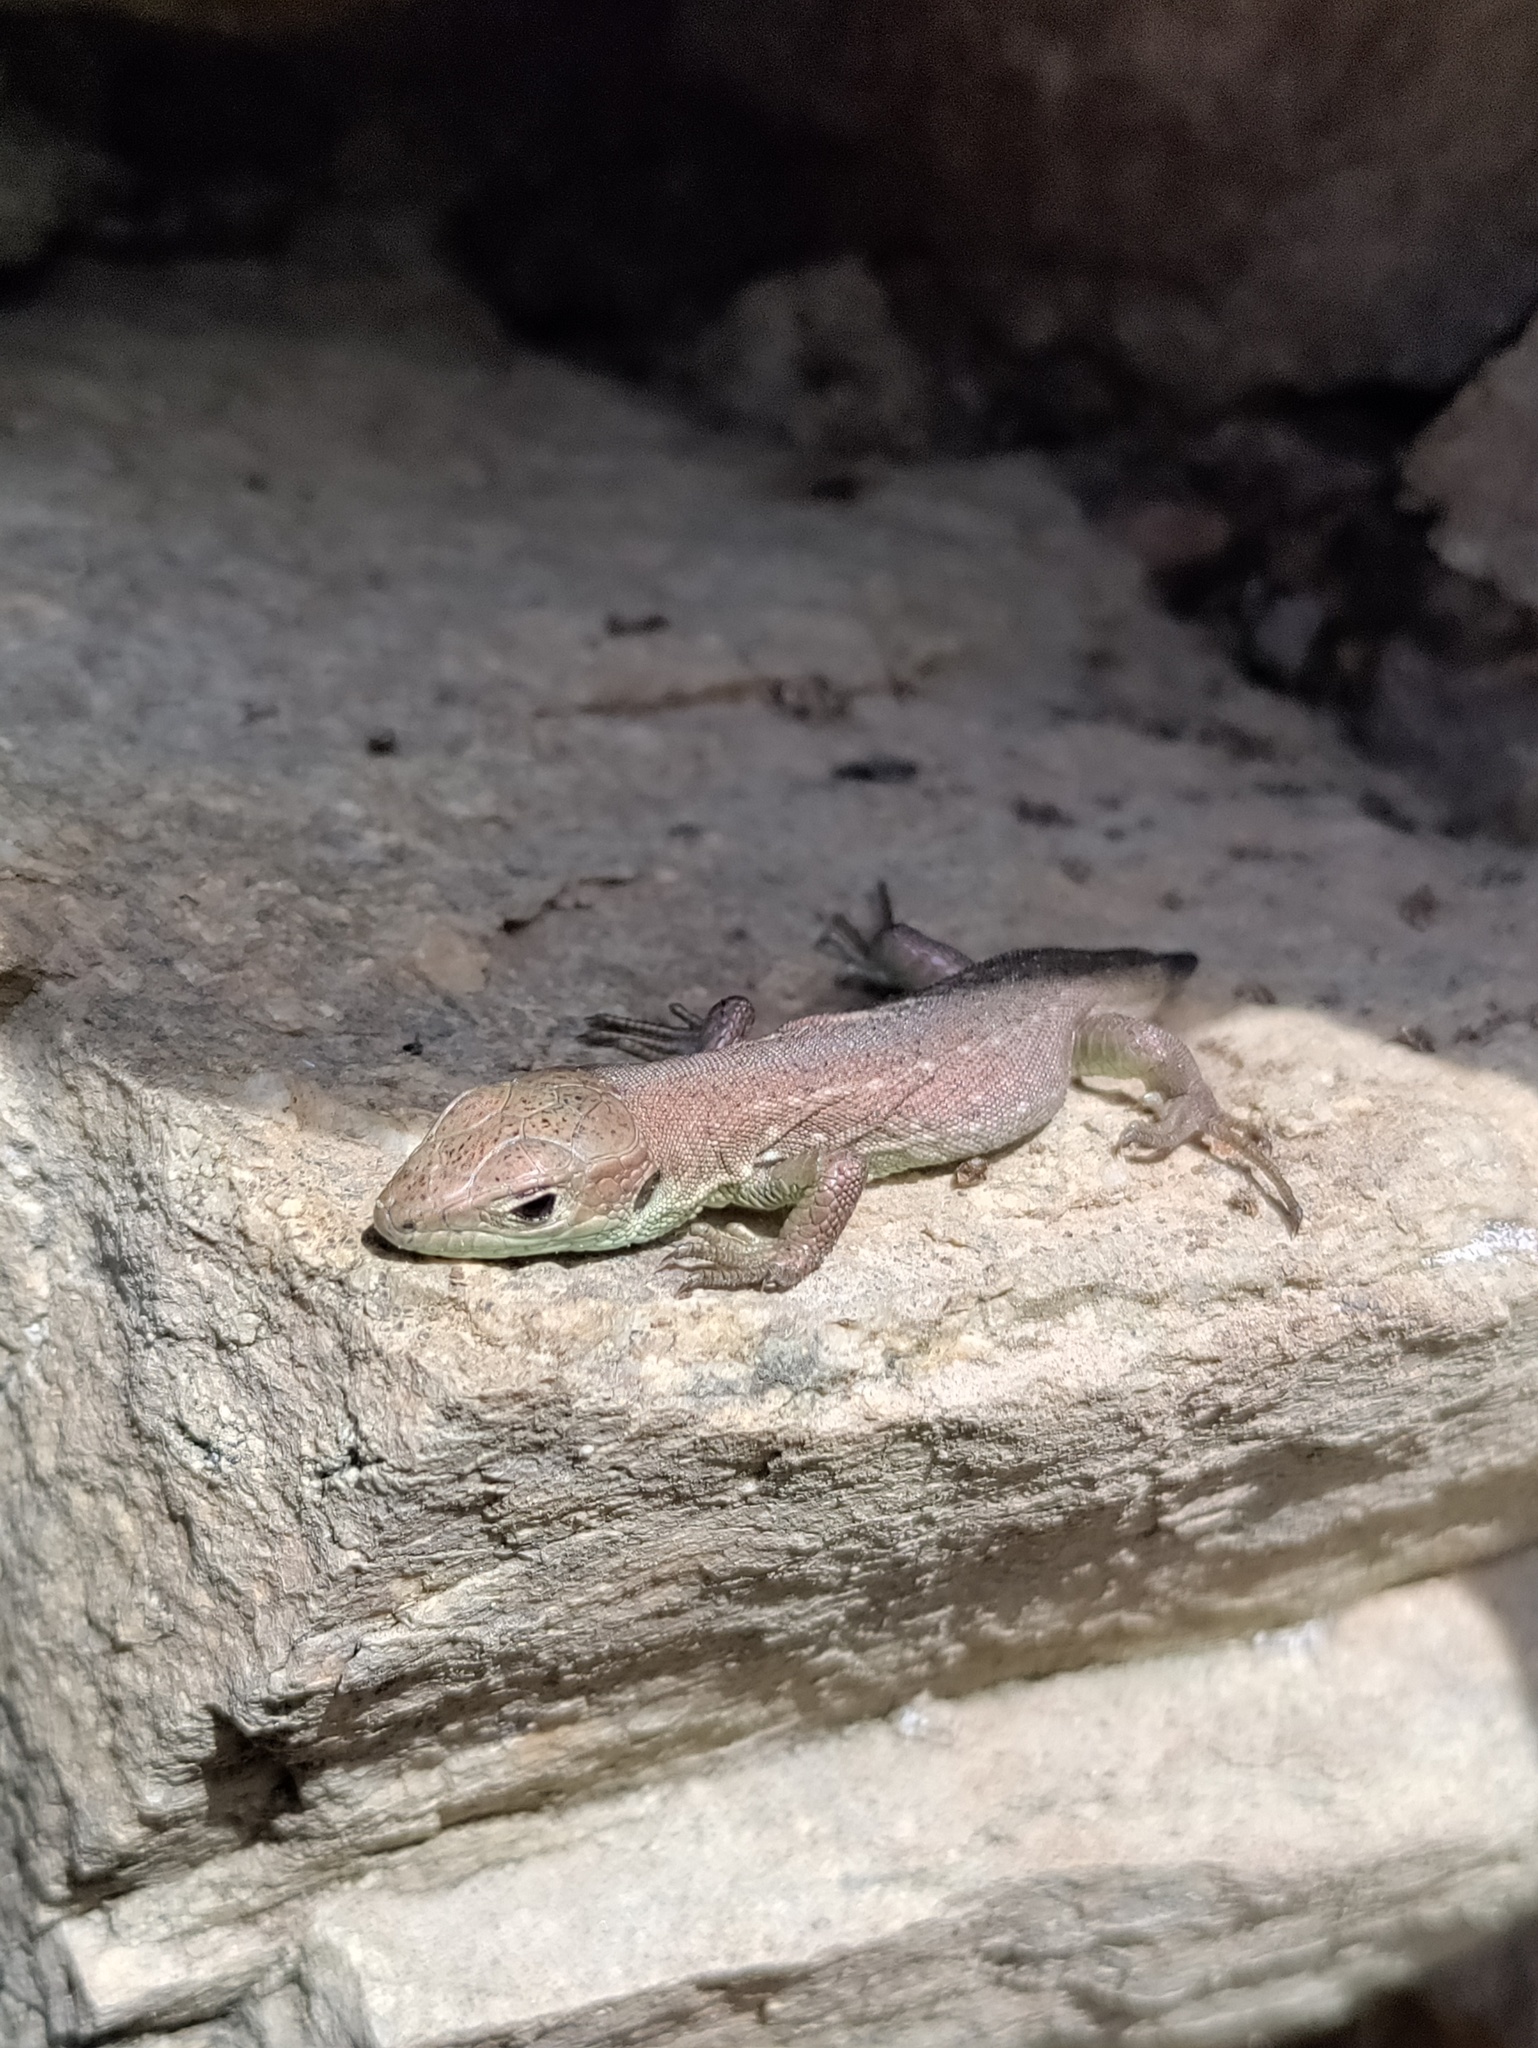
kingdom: Animalia
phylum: Chordata
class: Squamata
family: Lacertidae
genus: Lacerta
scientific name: Lacerta viridis
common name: European green lizard
